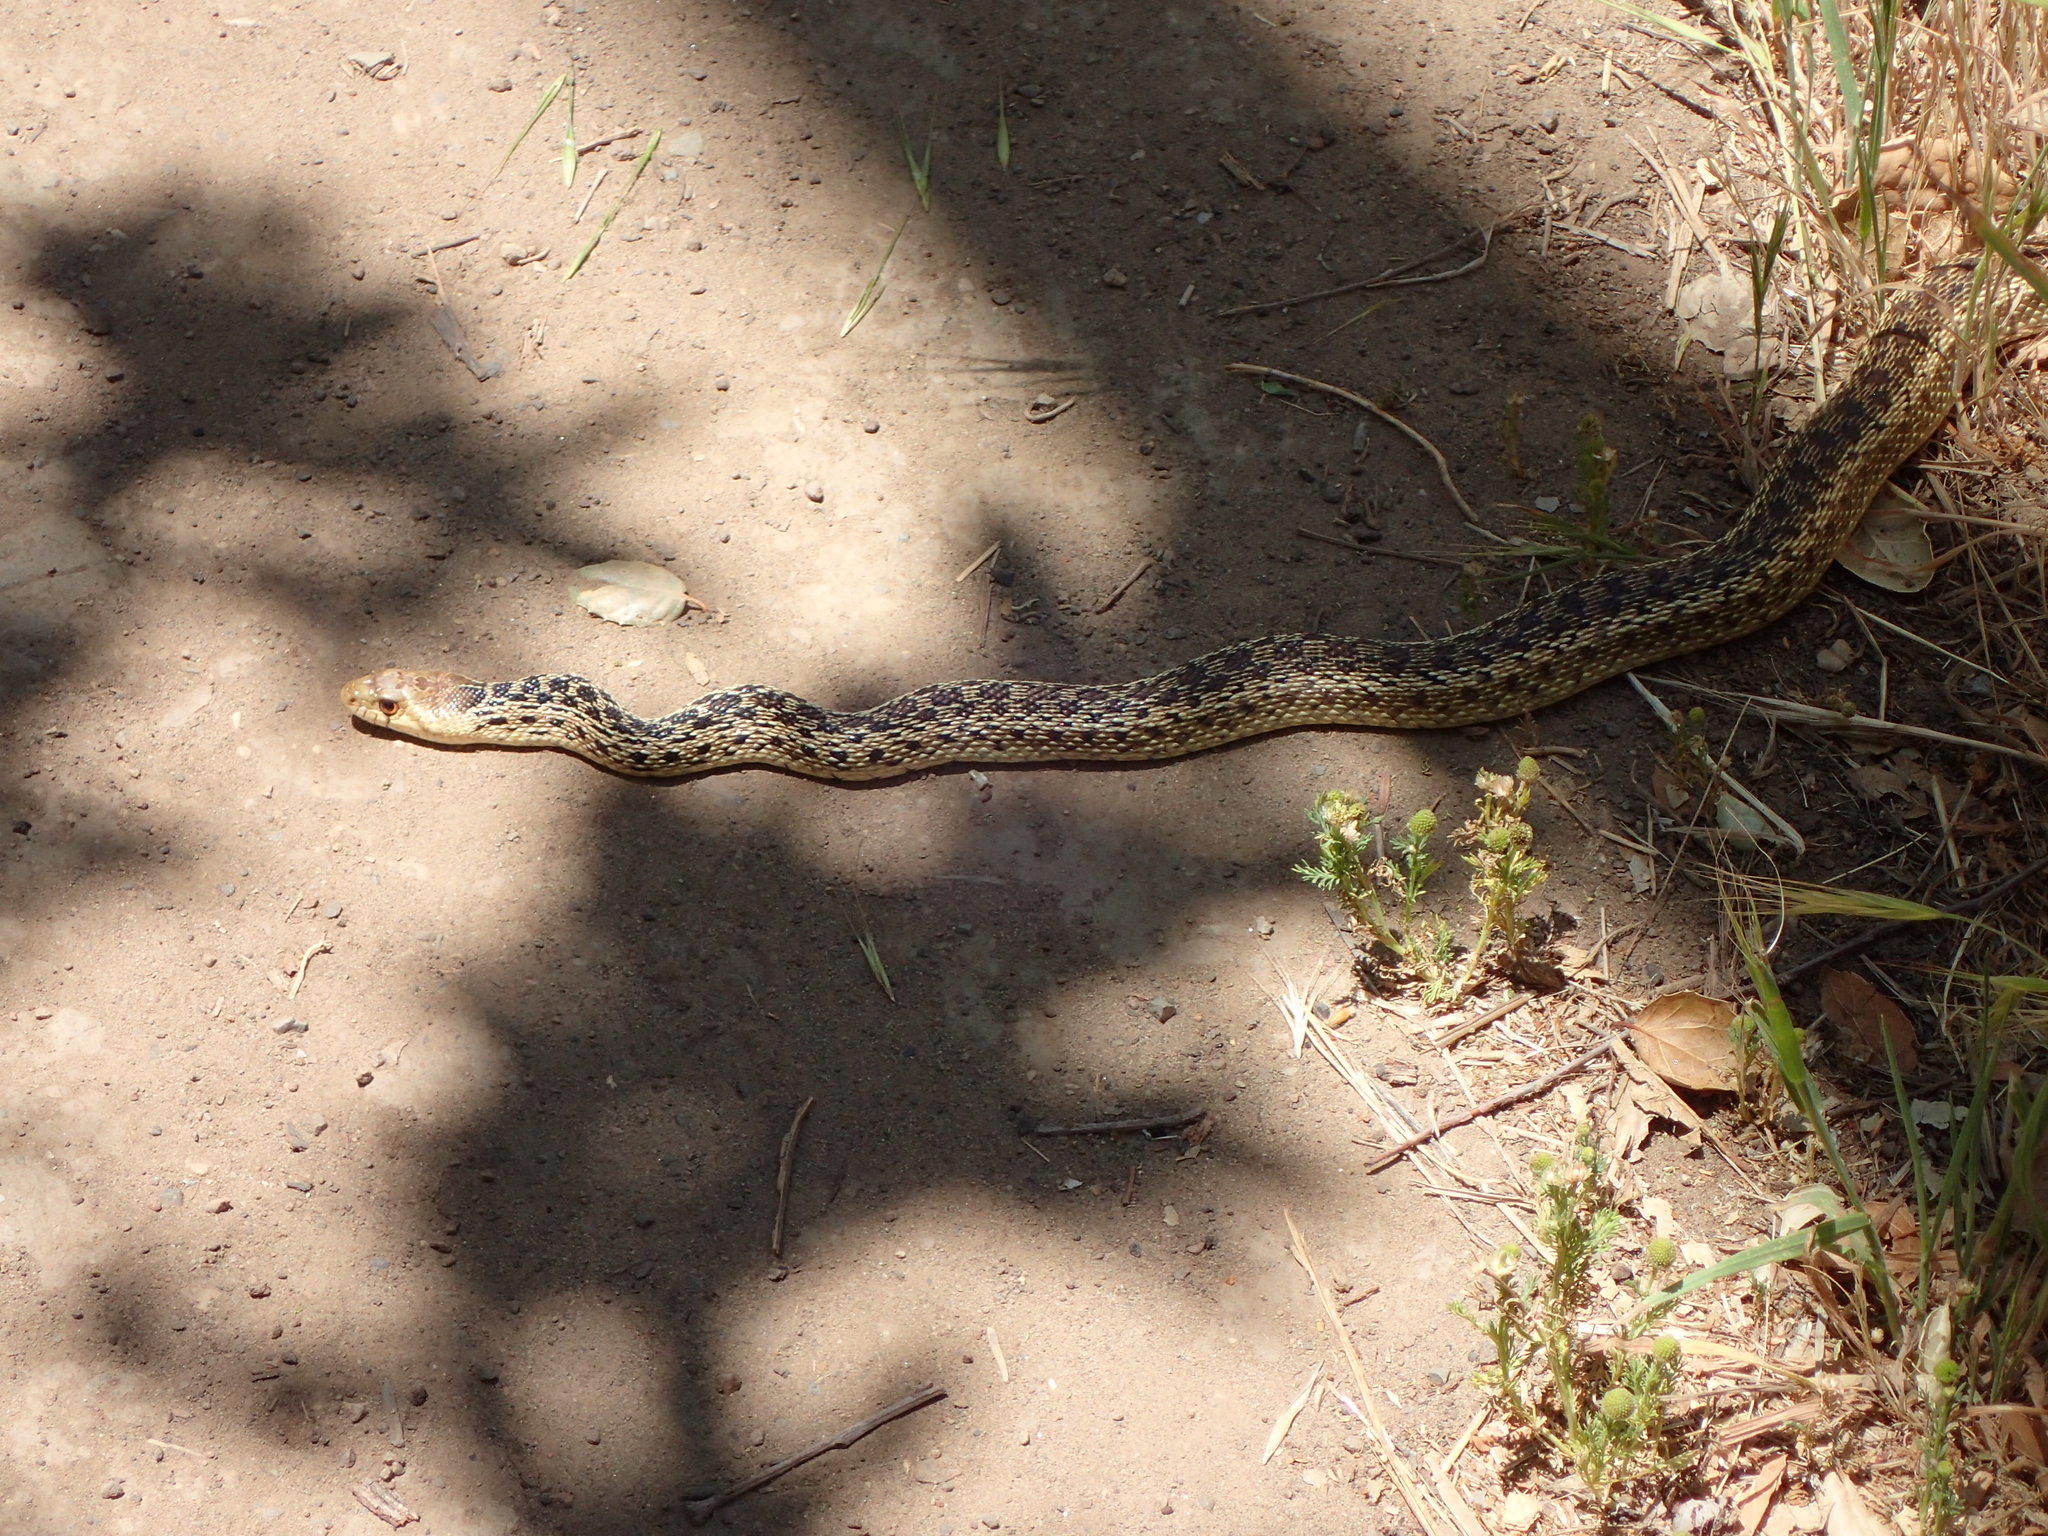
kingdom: Animalia
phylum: Chordata
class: Squamata
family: Colubridae
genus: Pituophis
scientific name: Pituophis catenifer
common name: Gopher snake
